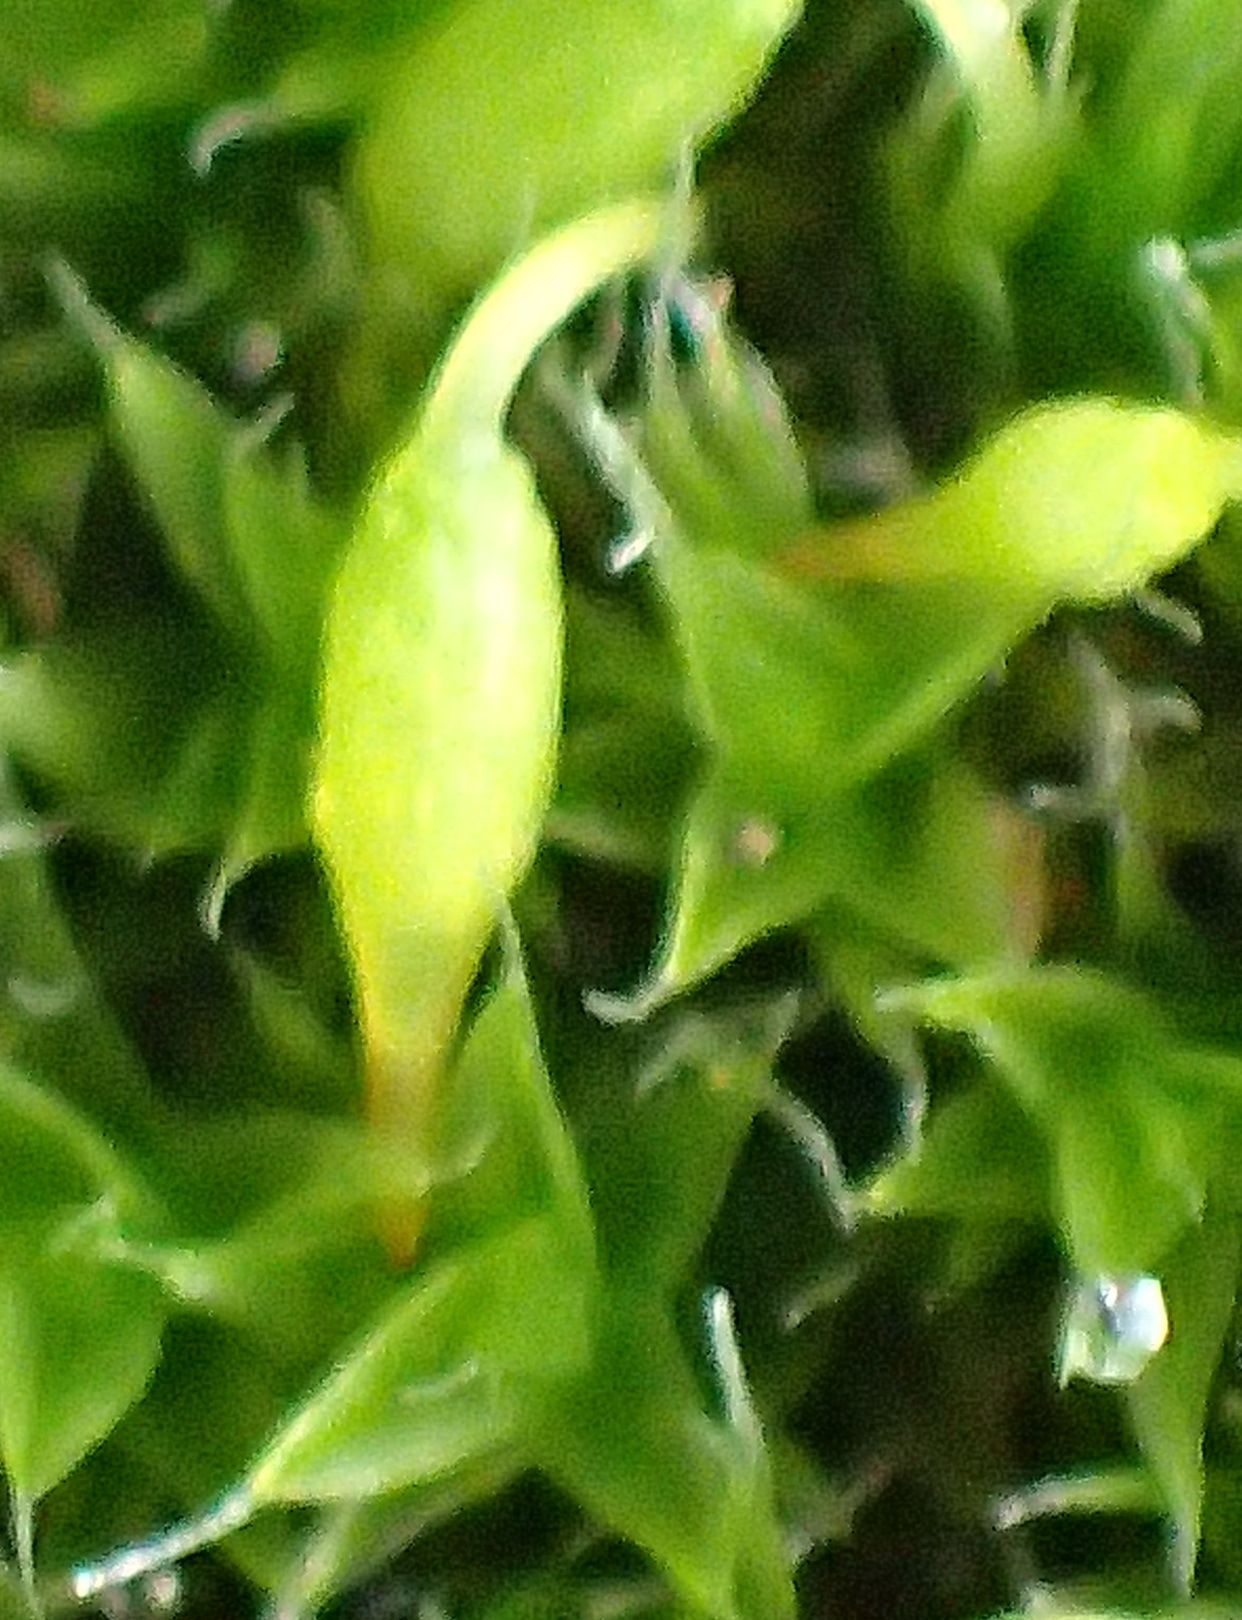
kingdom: Plantae
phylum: Bryophyta
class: Bryopsida
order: Grimmiales
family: Grimmiaceae
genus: Grimmia
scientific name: Grimmia orbicularis
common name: Round-fruited grimmia
